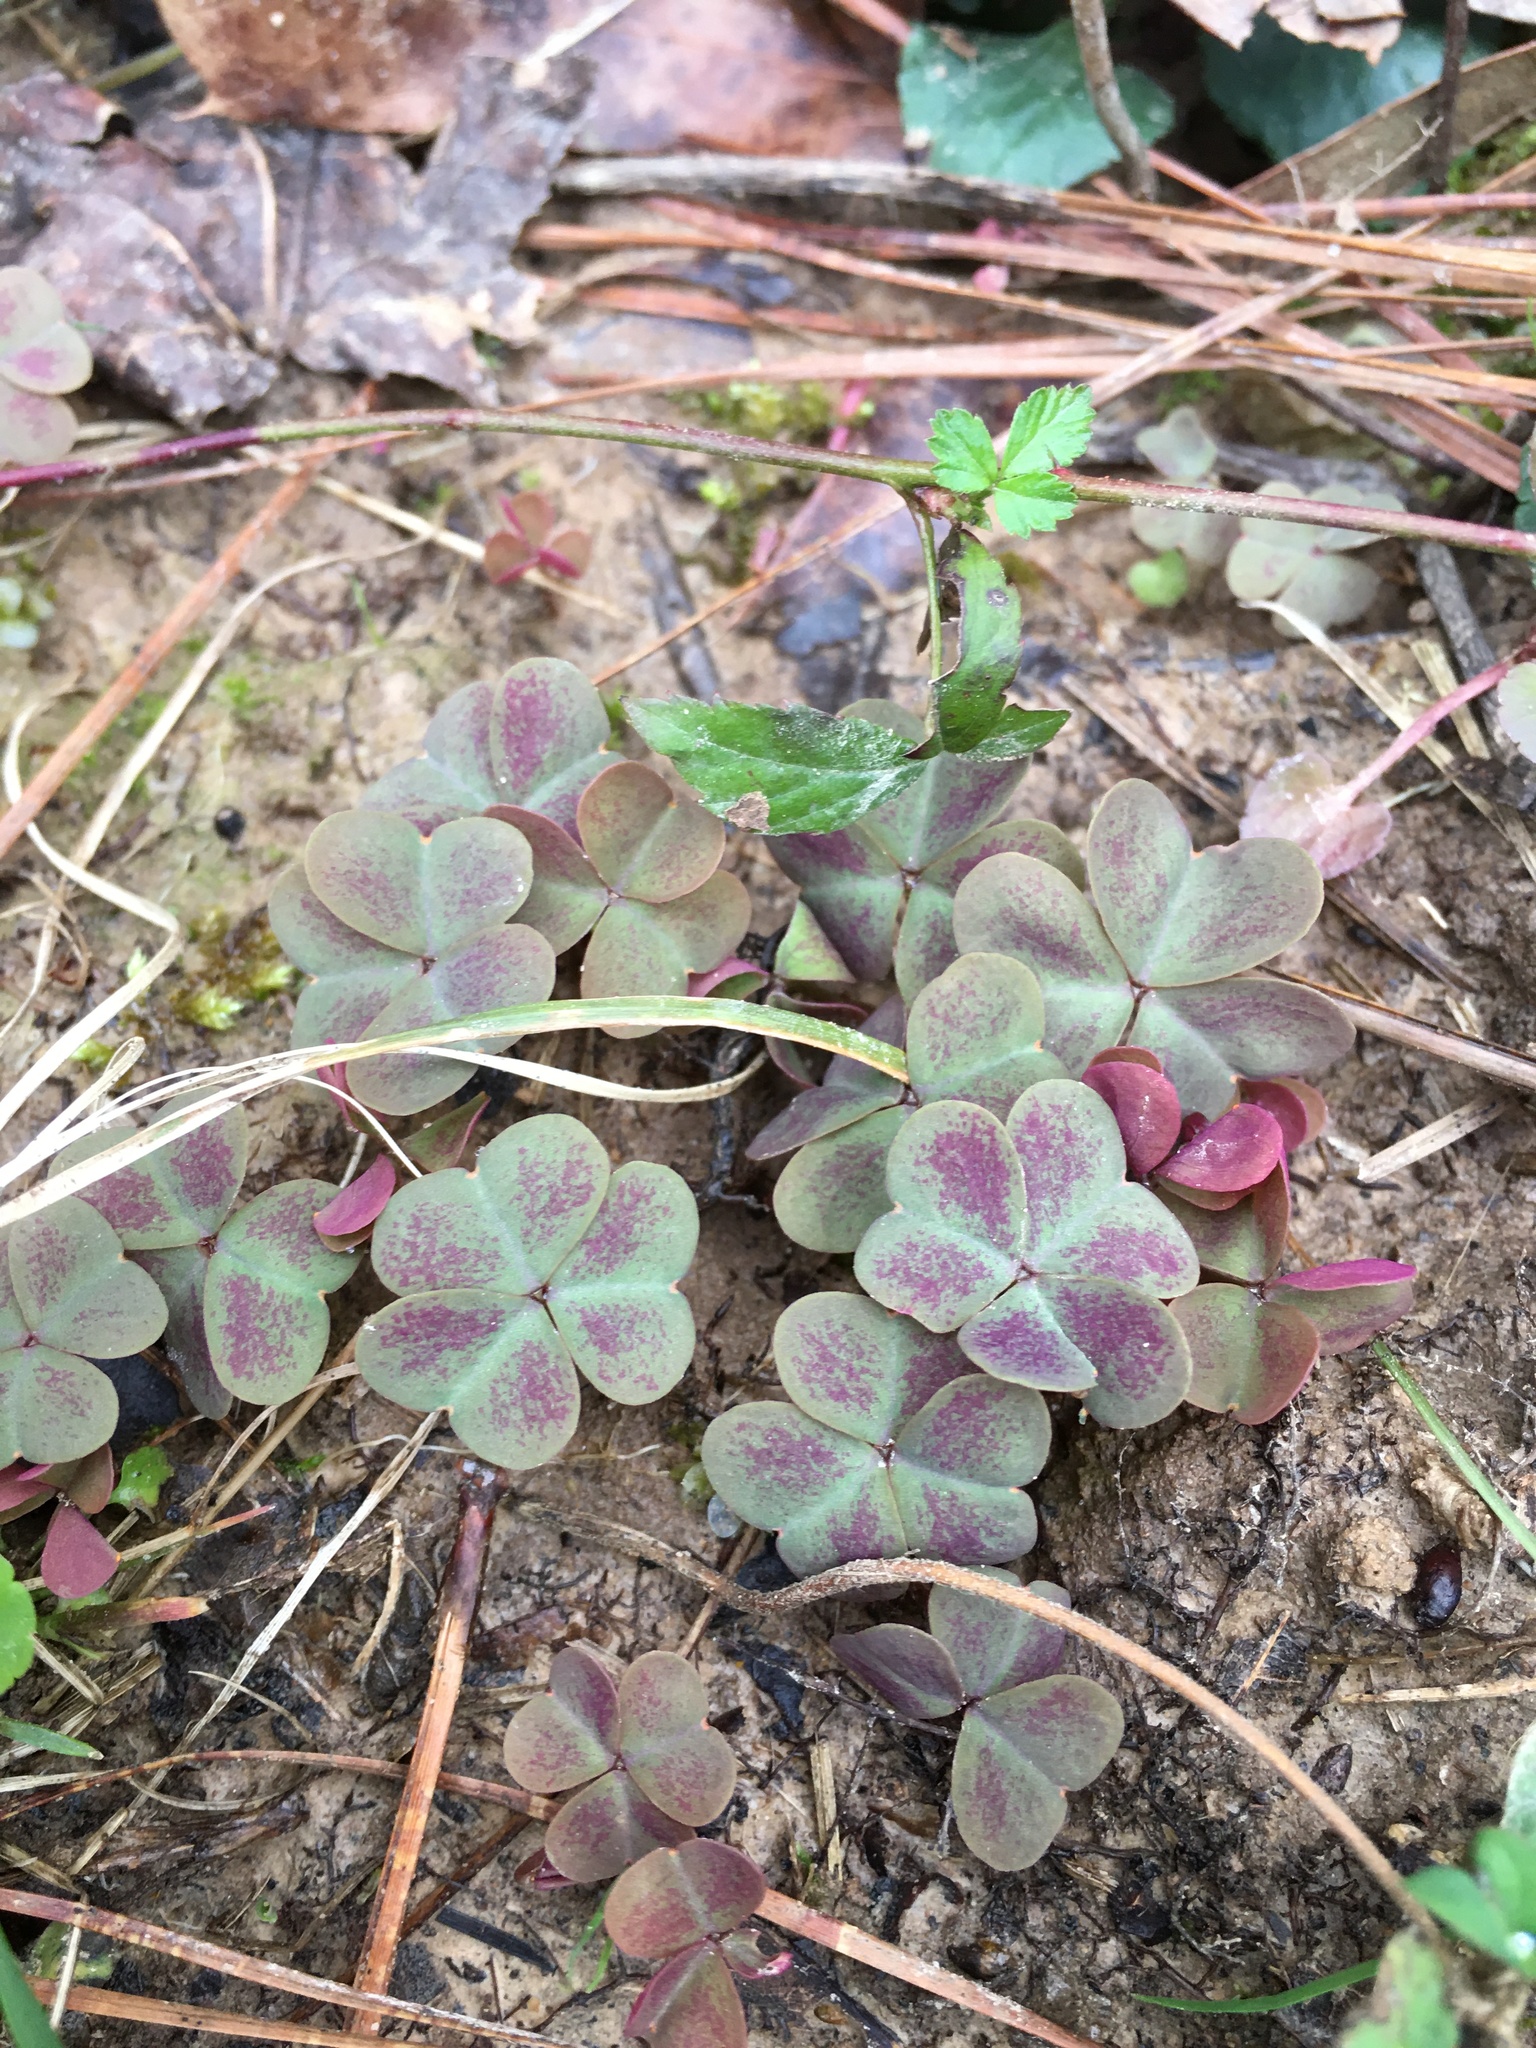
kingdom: Plantae
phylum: Tracheophyta
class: Magnoliopsida
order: Oxalidales
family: Oxalidaceae
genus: Oxalis
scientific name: Oxalis violacea
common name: Violet wood-sorrel
